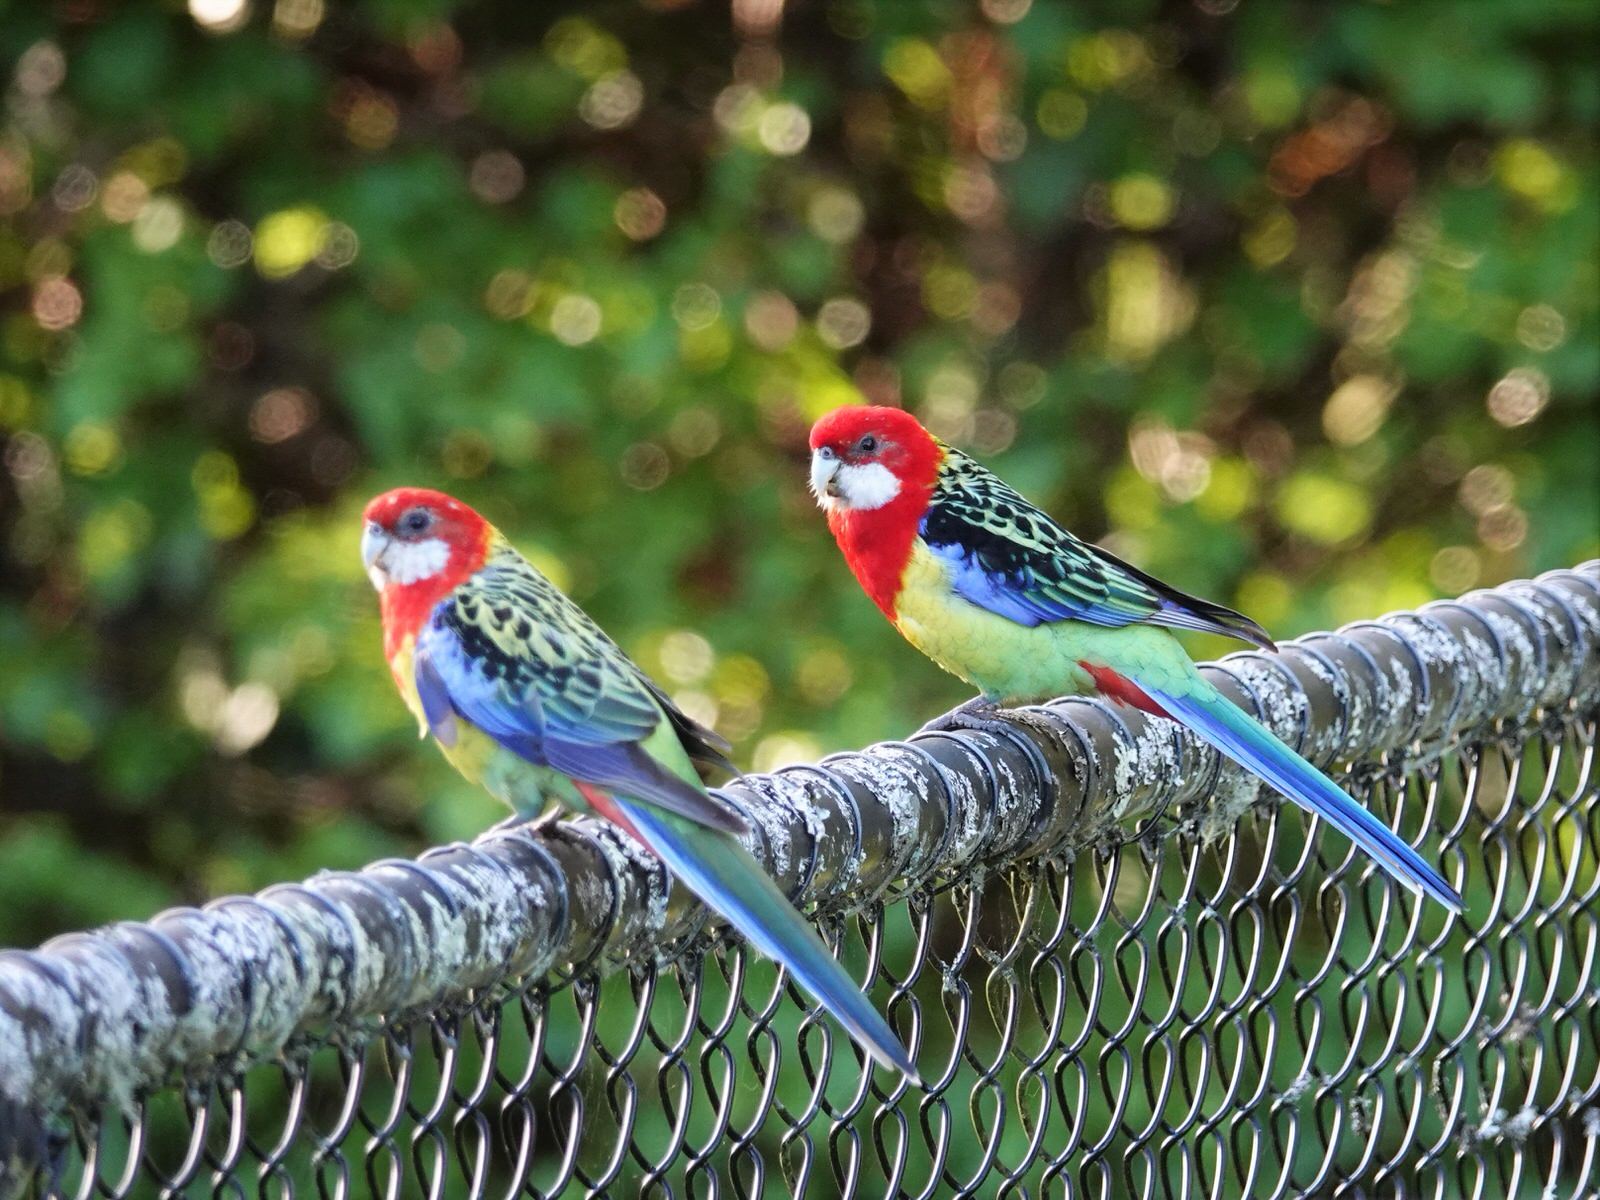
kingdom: Animalia
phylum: Chordata
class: Aves
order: Psittaciformes
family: Psittacidae
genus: Platycercus
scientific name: Platycercus eximius
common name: Eastern rosella
